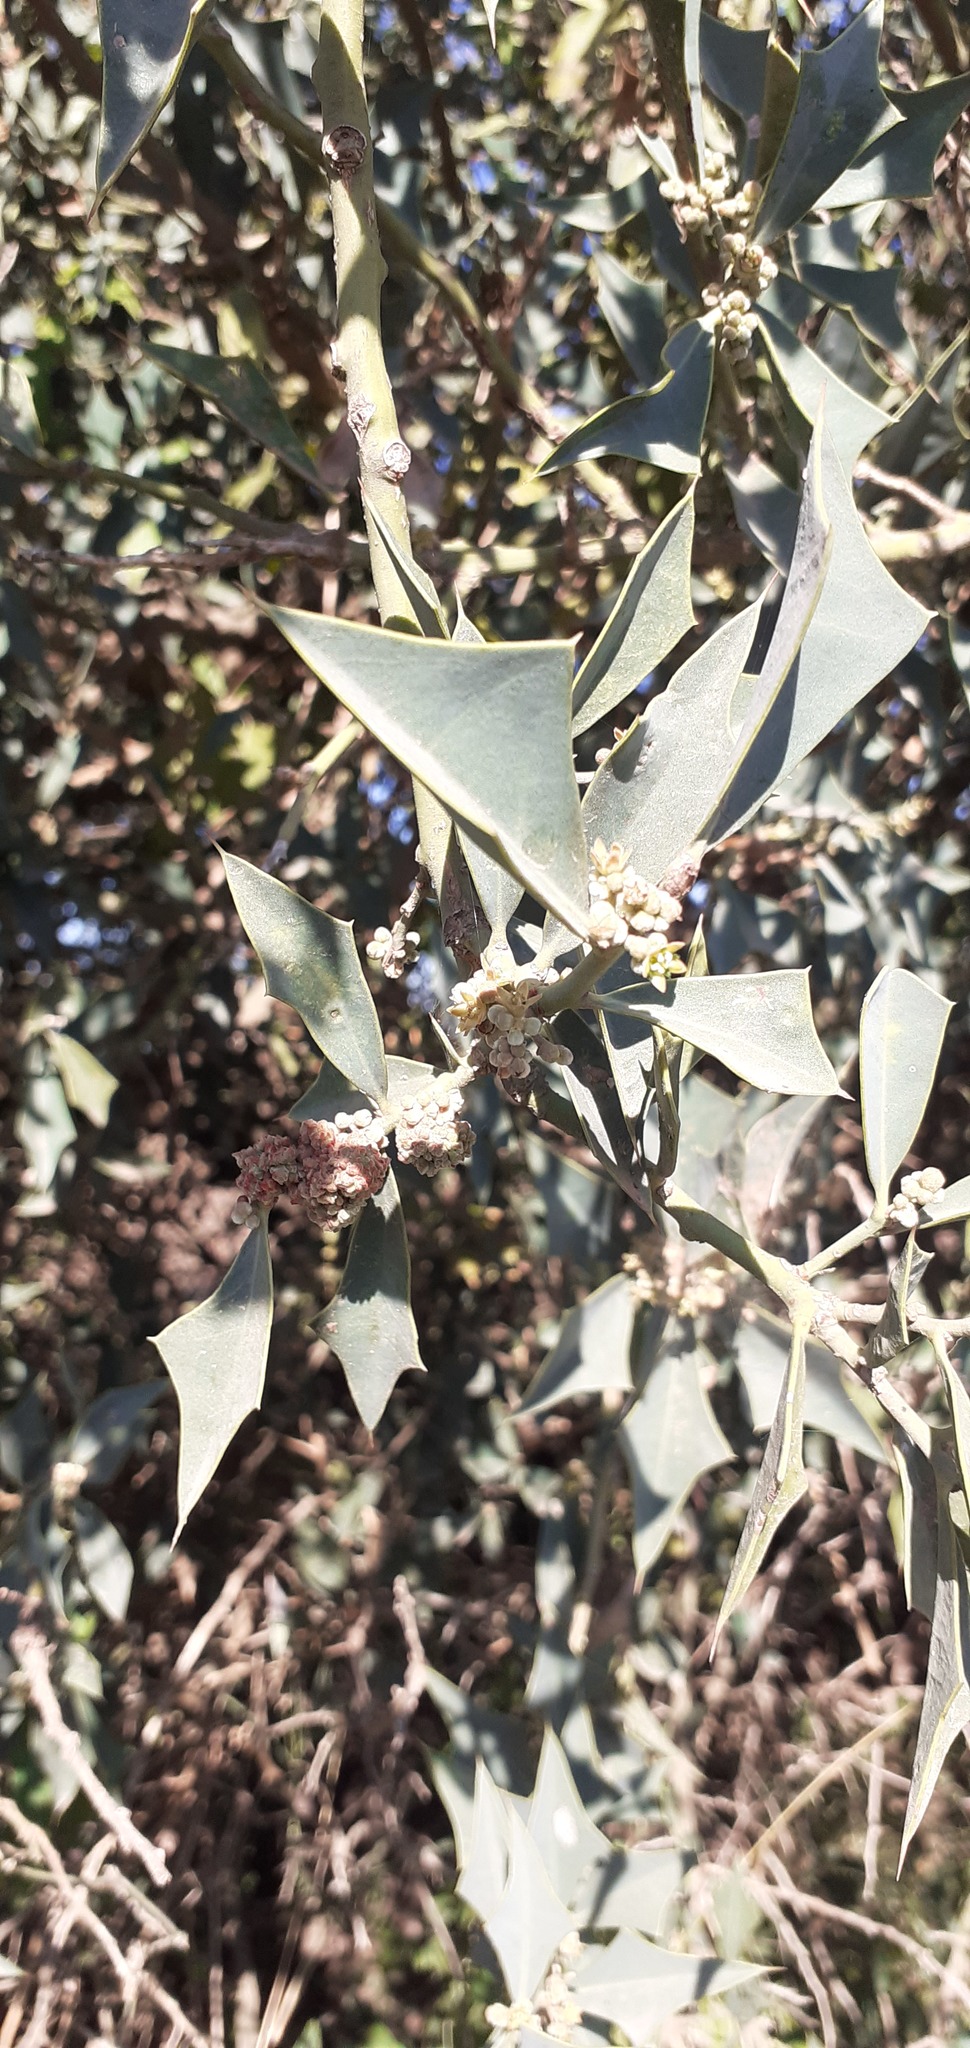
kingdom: Plantae
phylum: Tracheophyta
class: Magnoliopsida
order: Santalales
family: Cervantesiaceae
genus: Jodina
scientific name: Jodina rhombifolia
